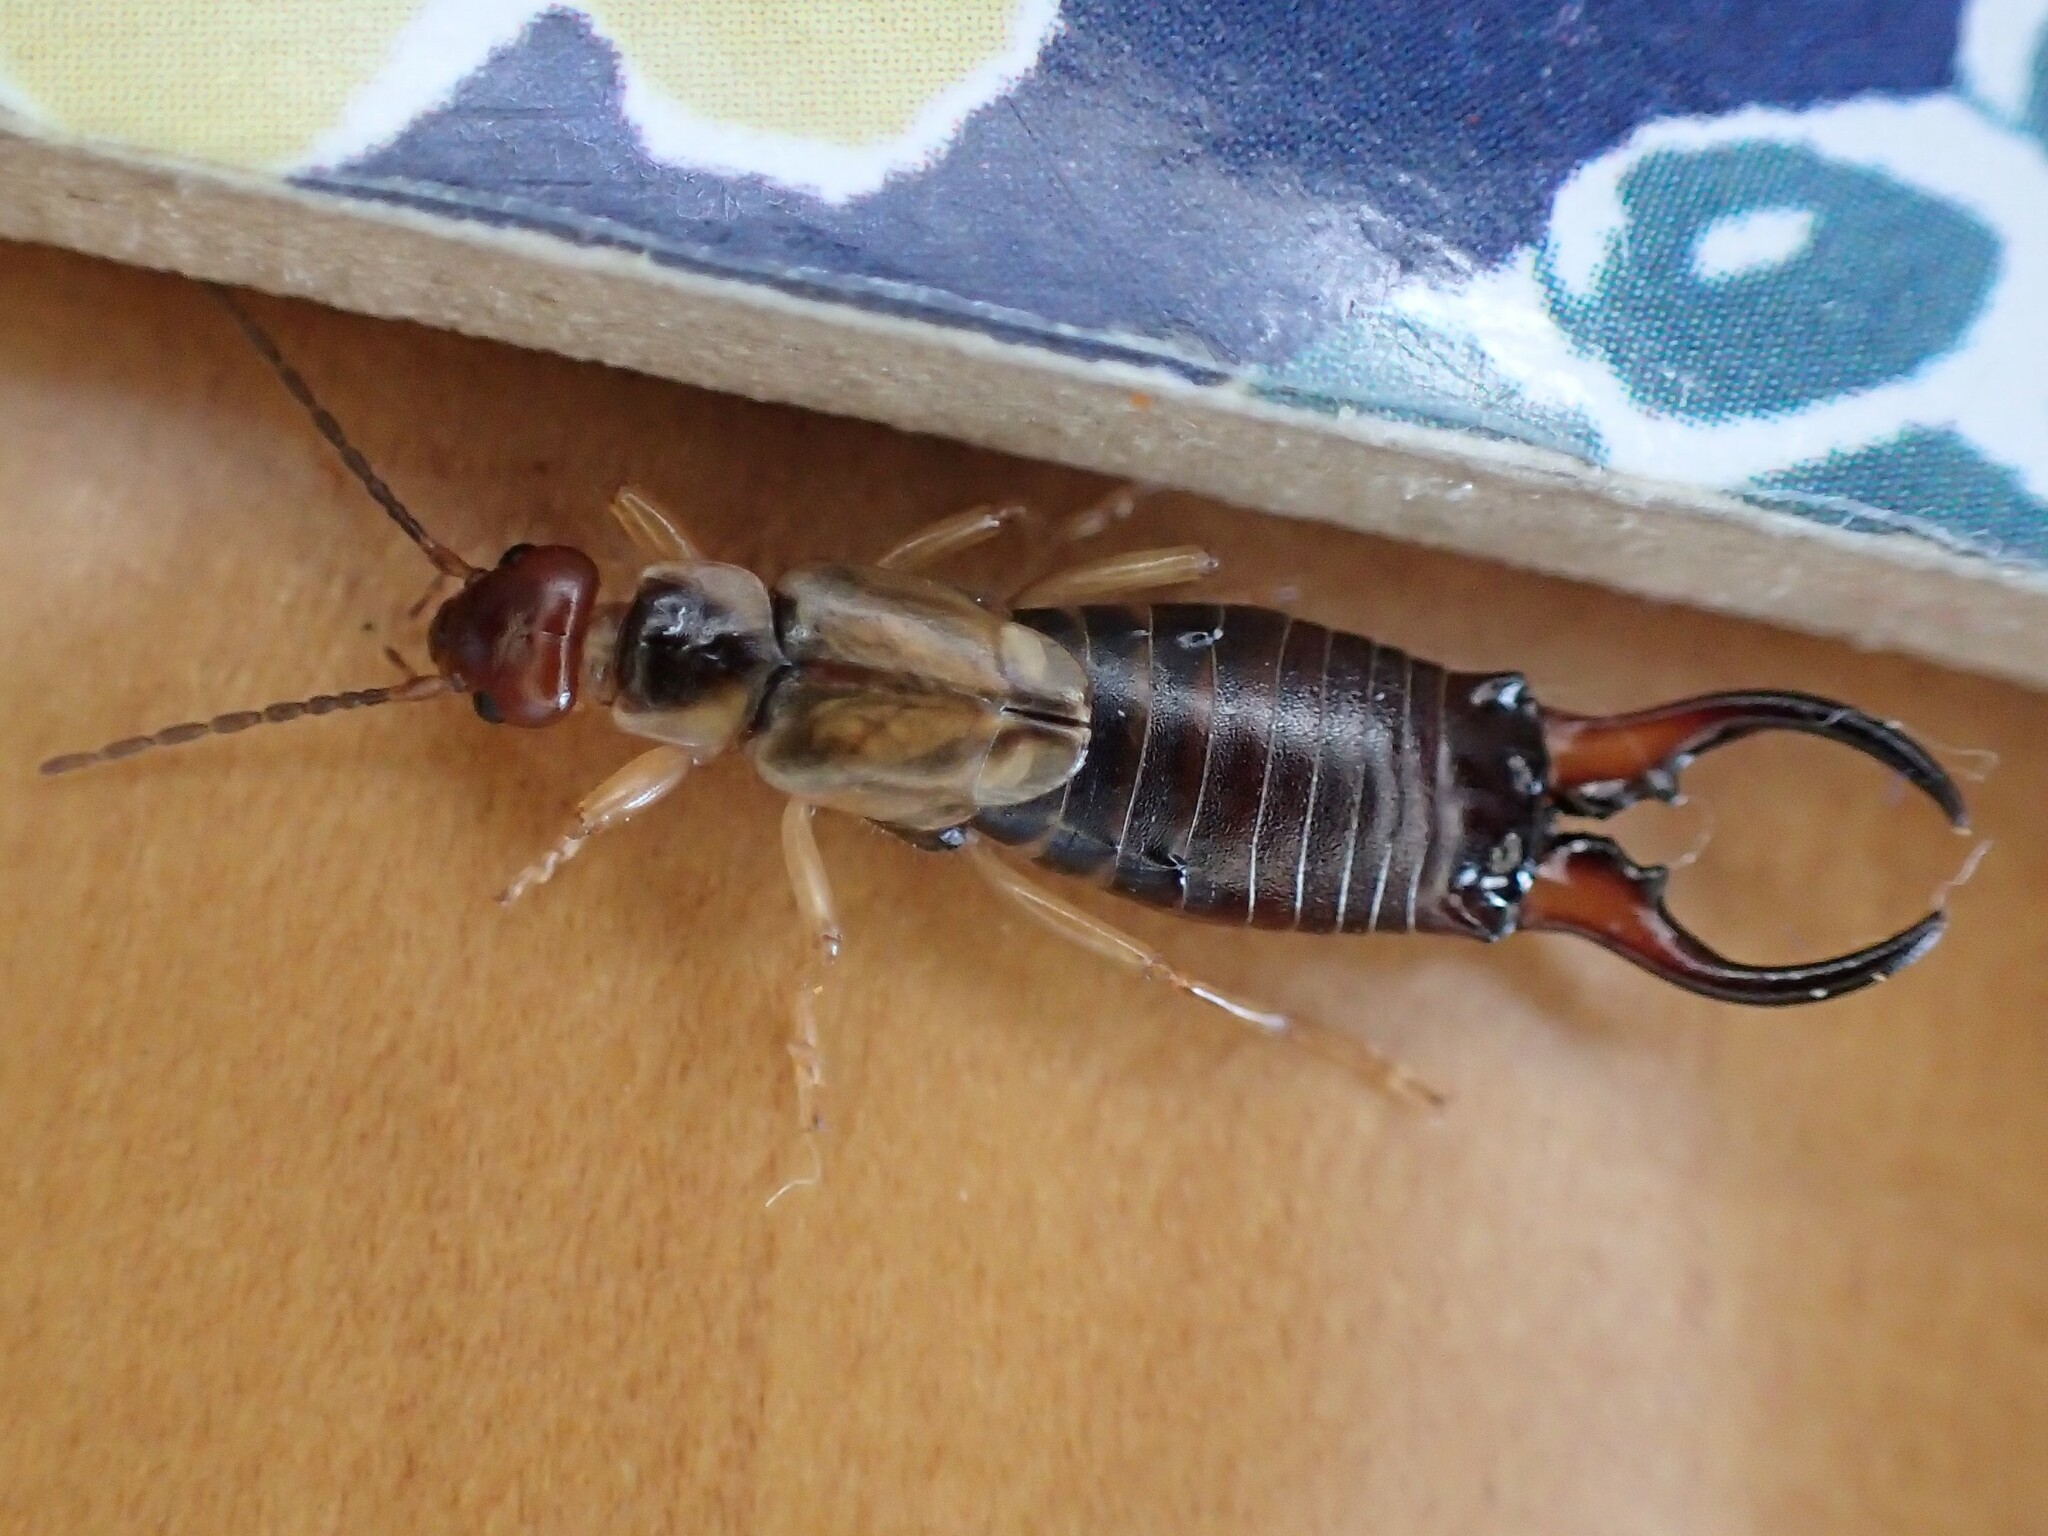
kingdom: Animalia
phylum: Arthropoda
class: Insecta
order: Dermaptera
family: Forficulidae
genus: Forficula
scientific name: Forficula
